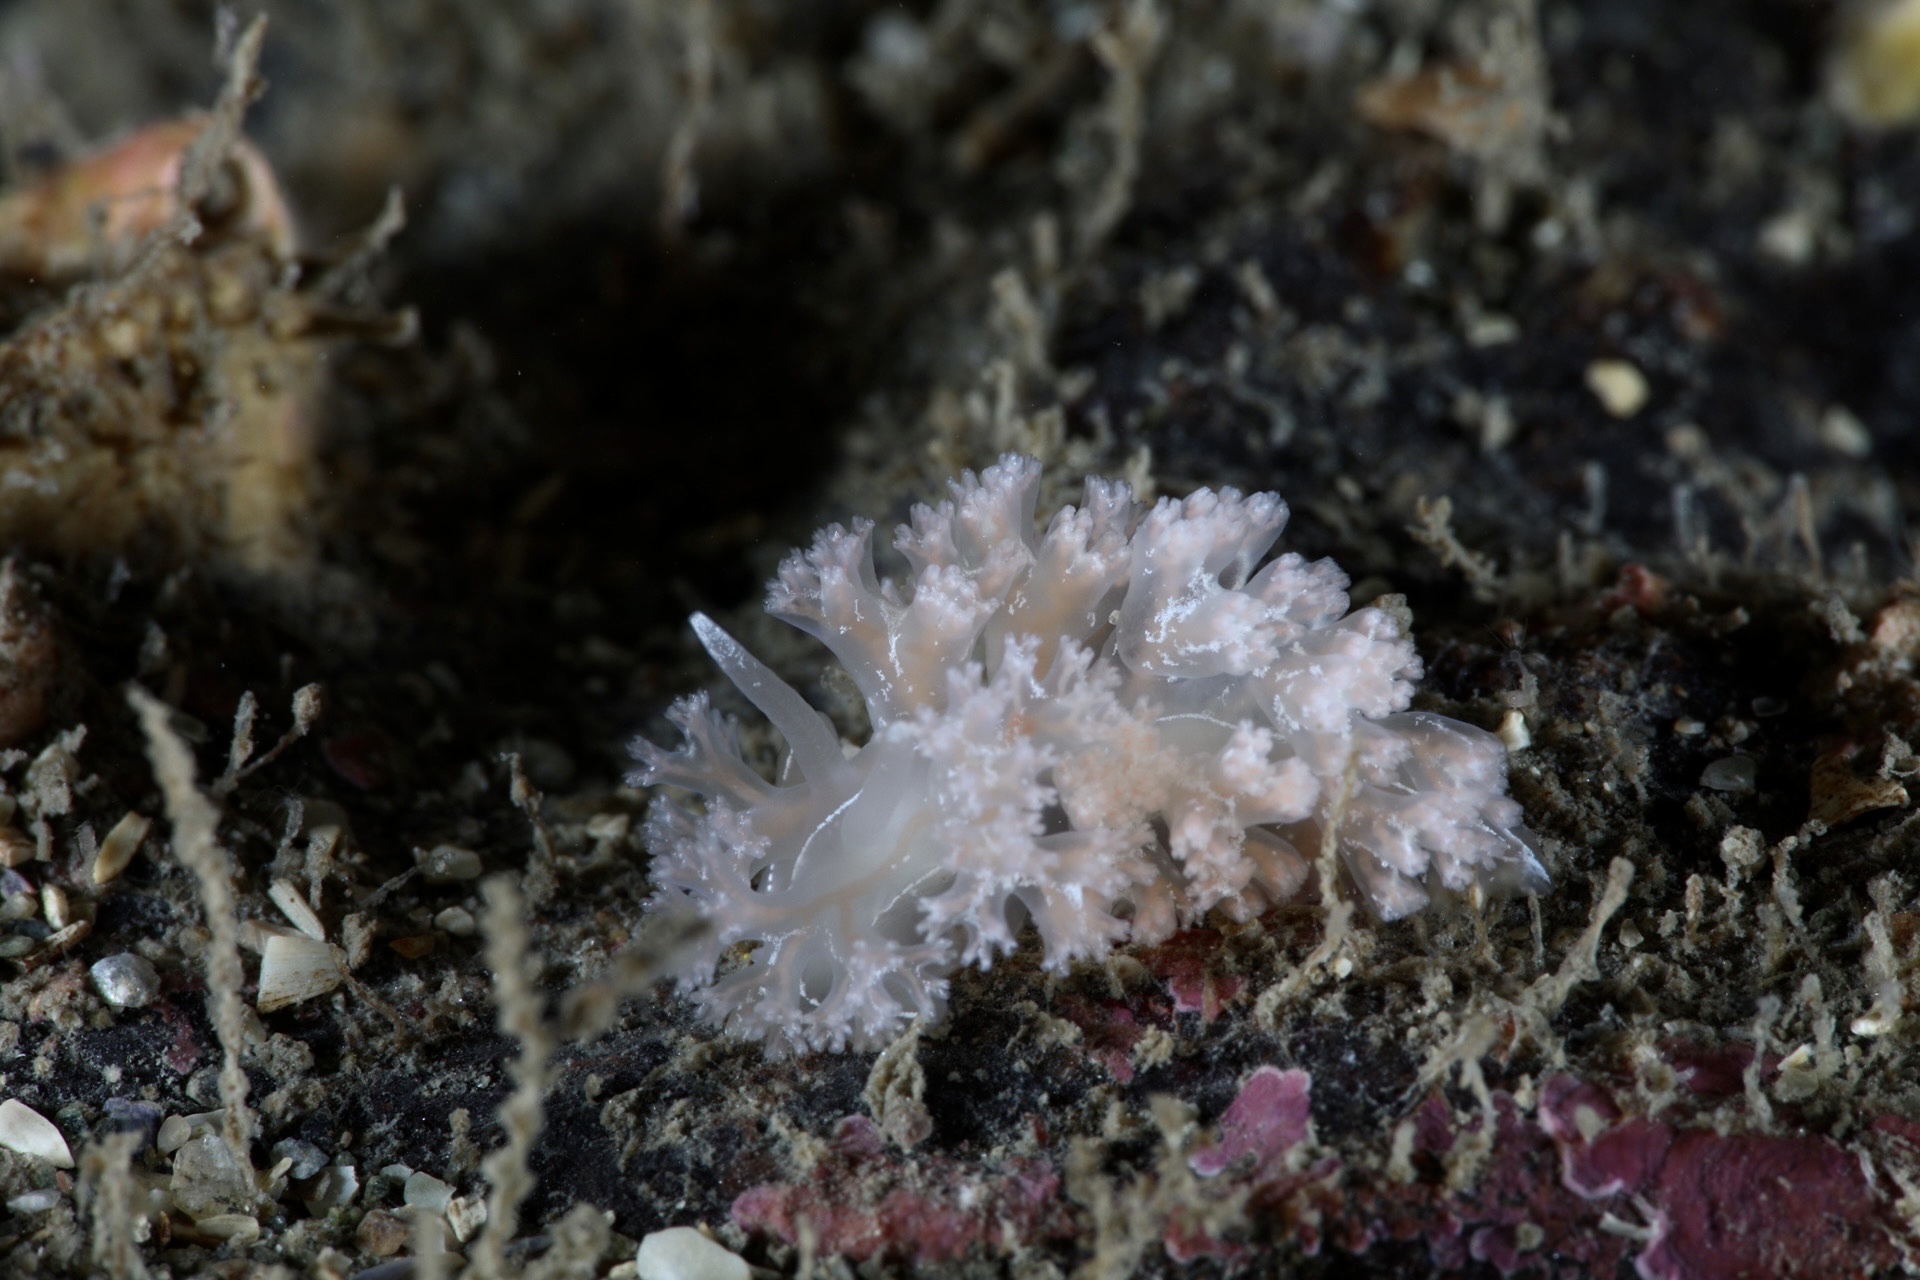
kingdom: Animalia
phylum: Mollusca
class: Gastropoda
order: Nudibranchia
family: Heroidae
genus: Hero
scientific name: Hero formosa
